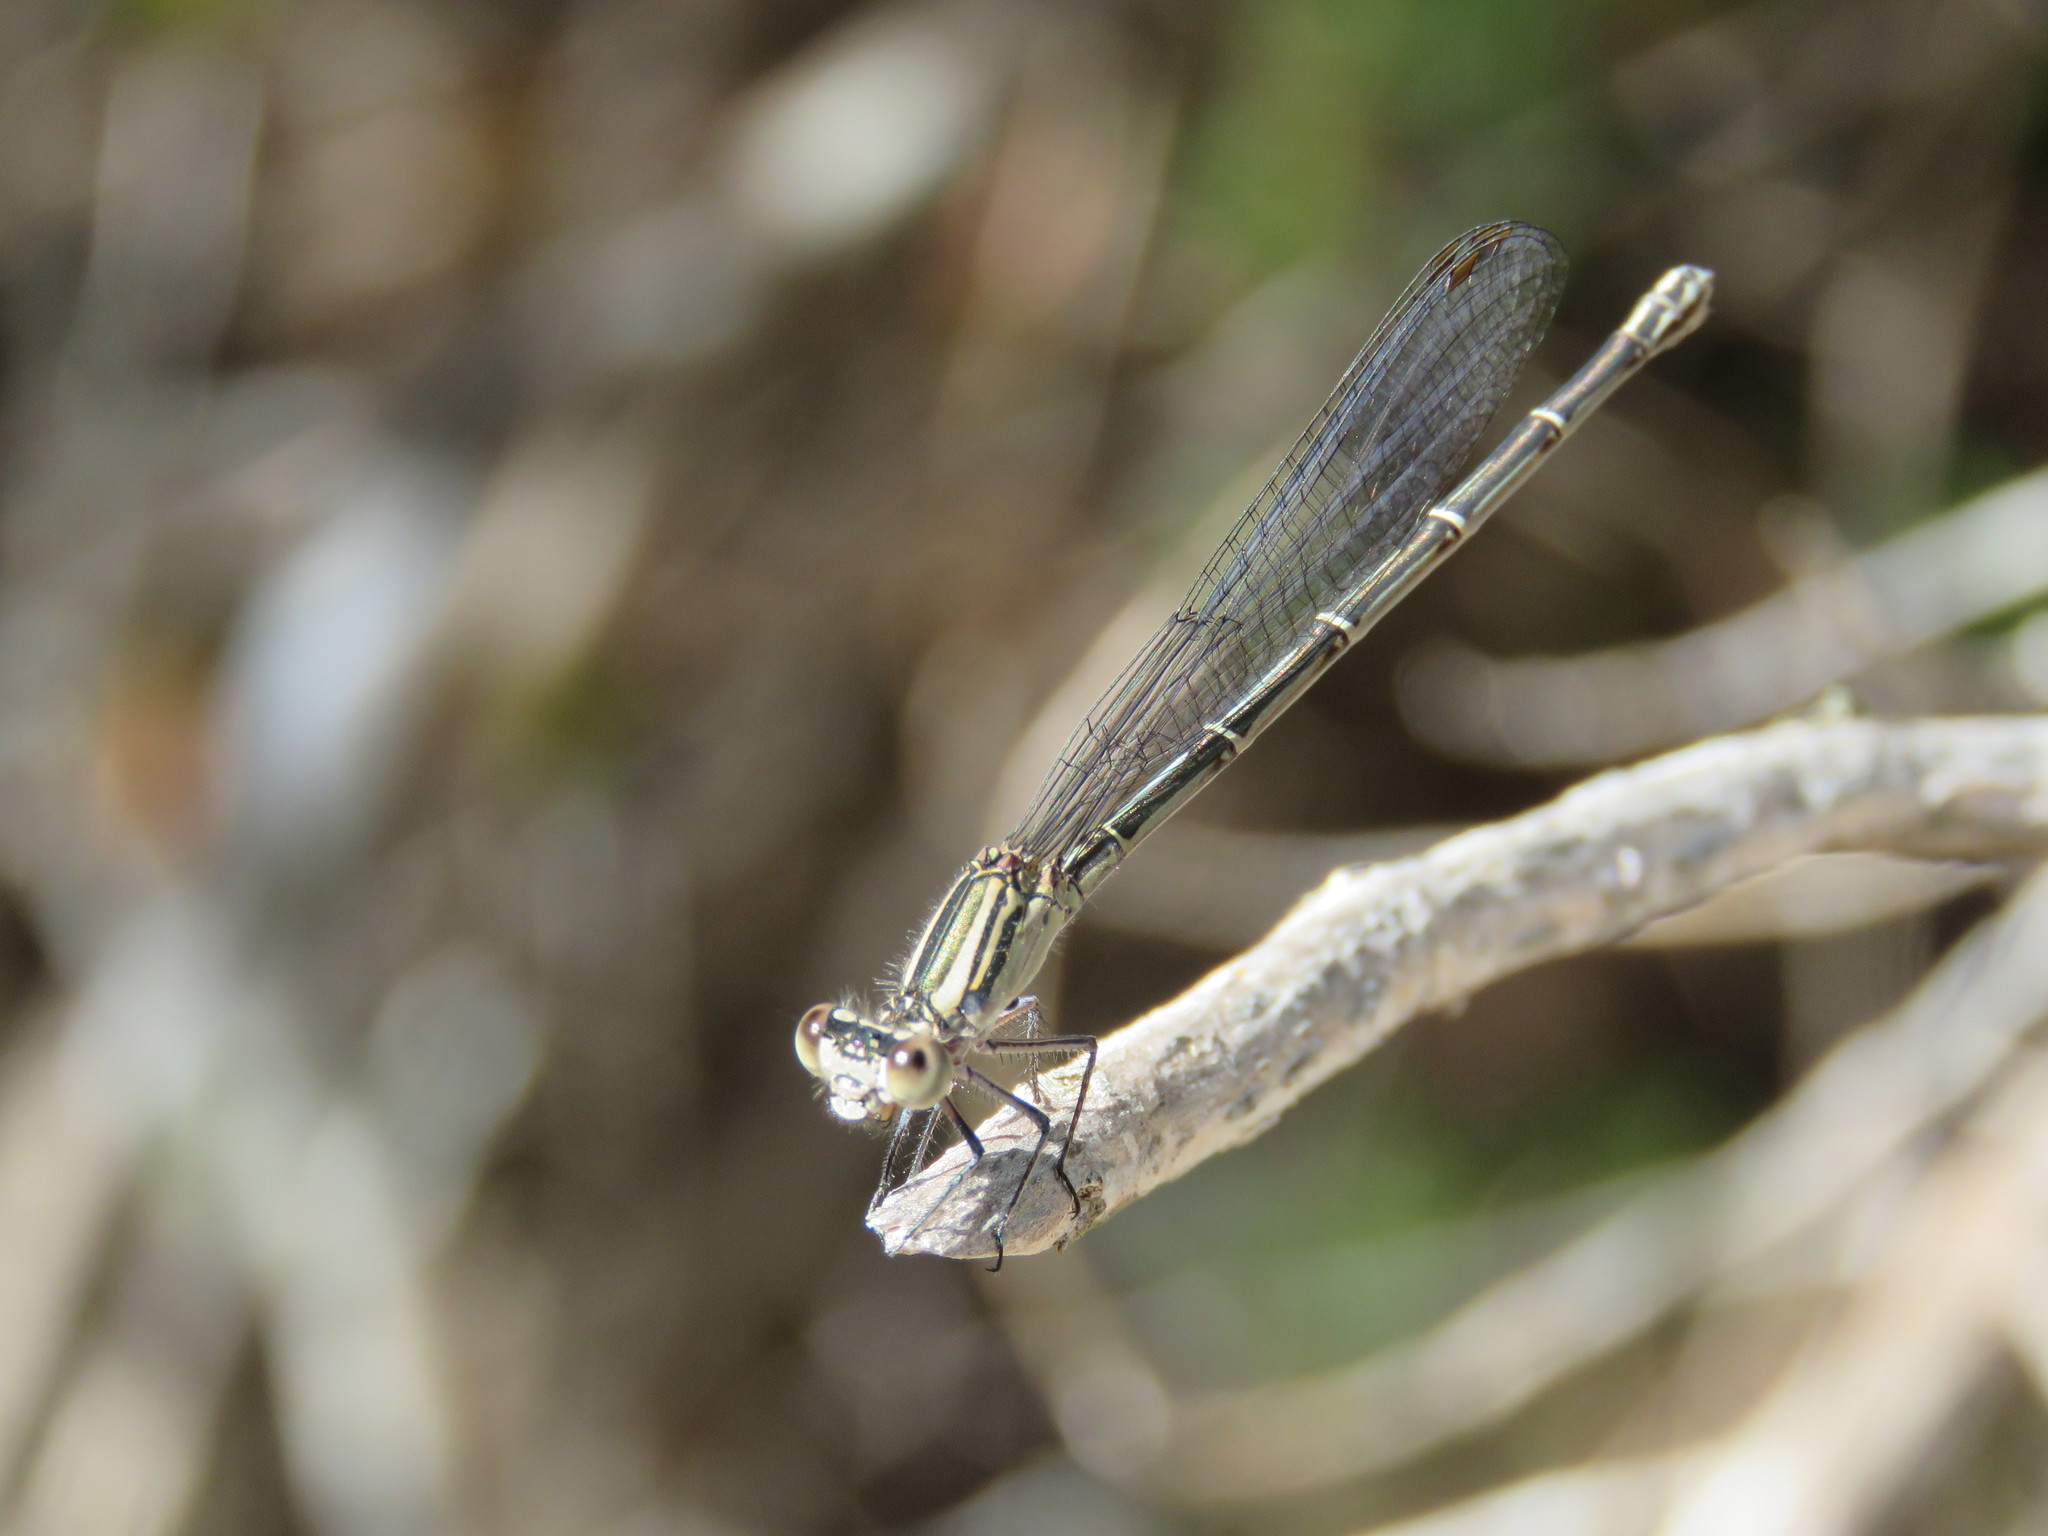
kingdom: Animalia
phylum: Arthropoda
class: Insecta
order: Odonata
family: Coenagrionidae
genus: Argia
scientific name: Argia translata
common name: Dusky dancer
